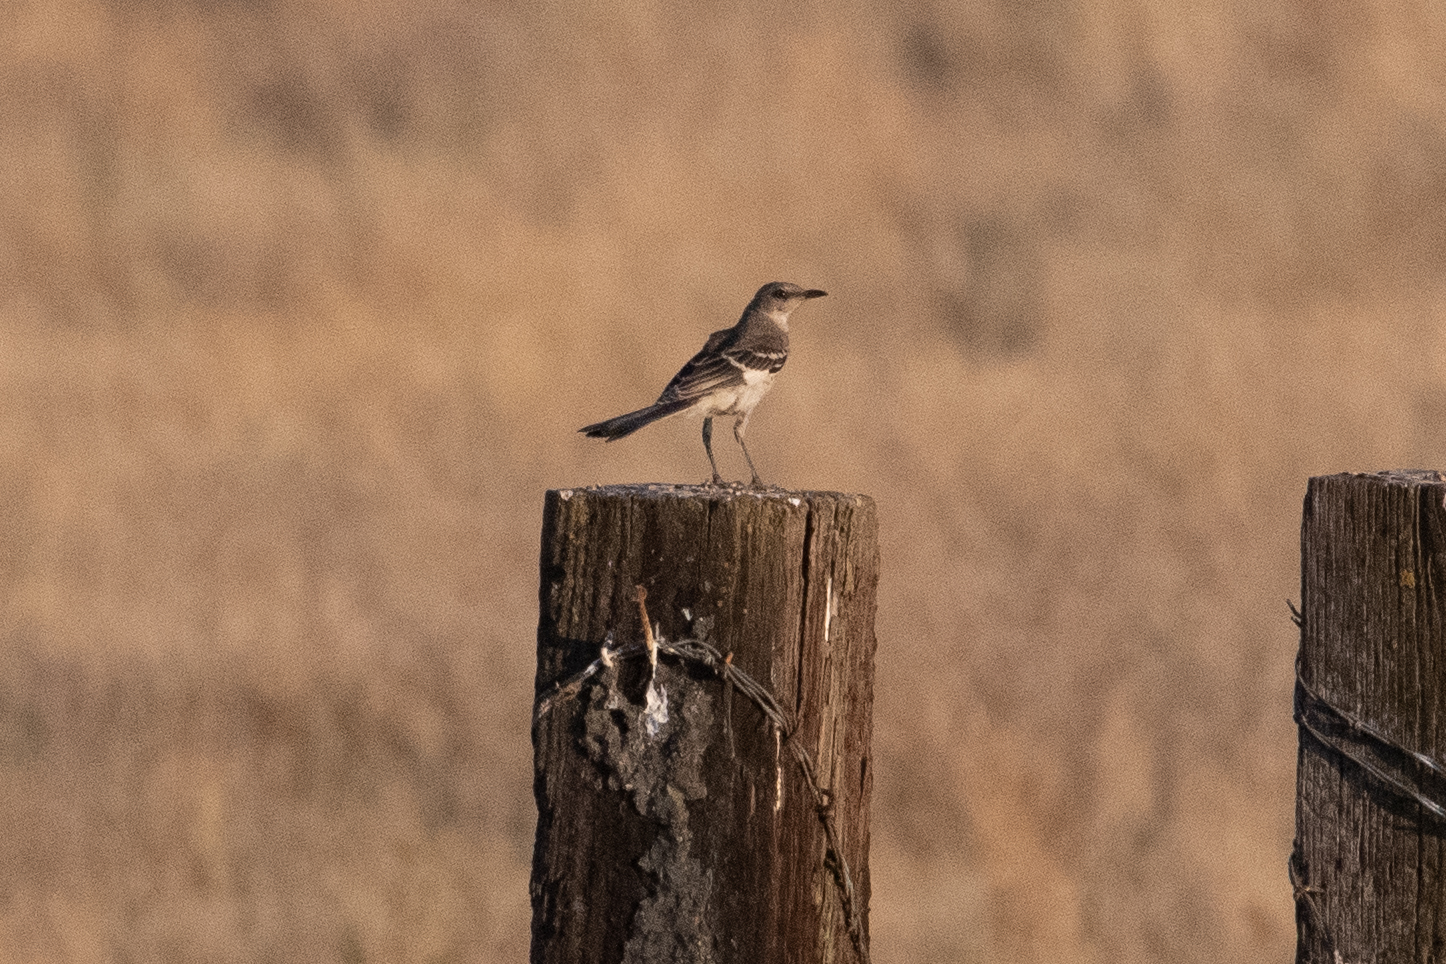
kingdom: Animalia
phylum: Chordata
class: Aves
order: Passeriformes
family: Mimidae
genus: Mimus
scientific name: Mimus polyglottos
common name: Northern mockingbird
